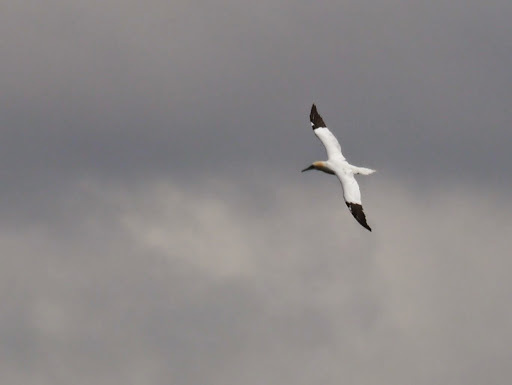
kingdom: Animalia
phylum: Chordata
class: Aves
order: Suliformes
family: Sulidae
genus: Morus
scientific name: Morus bassanus
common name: Northern gannet
